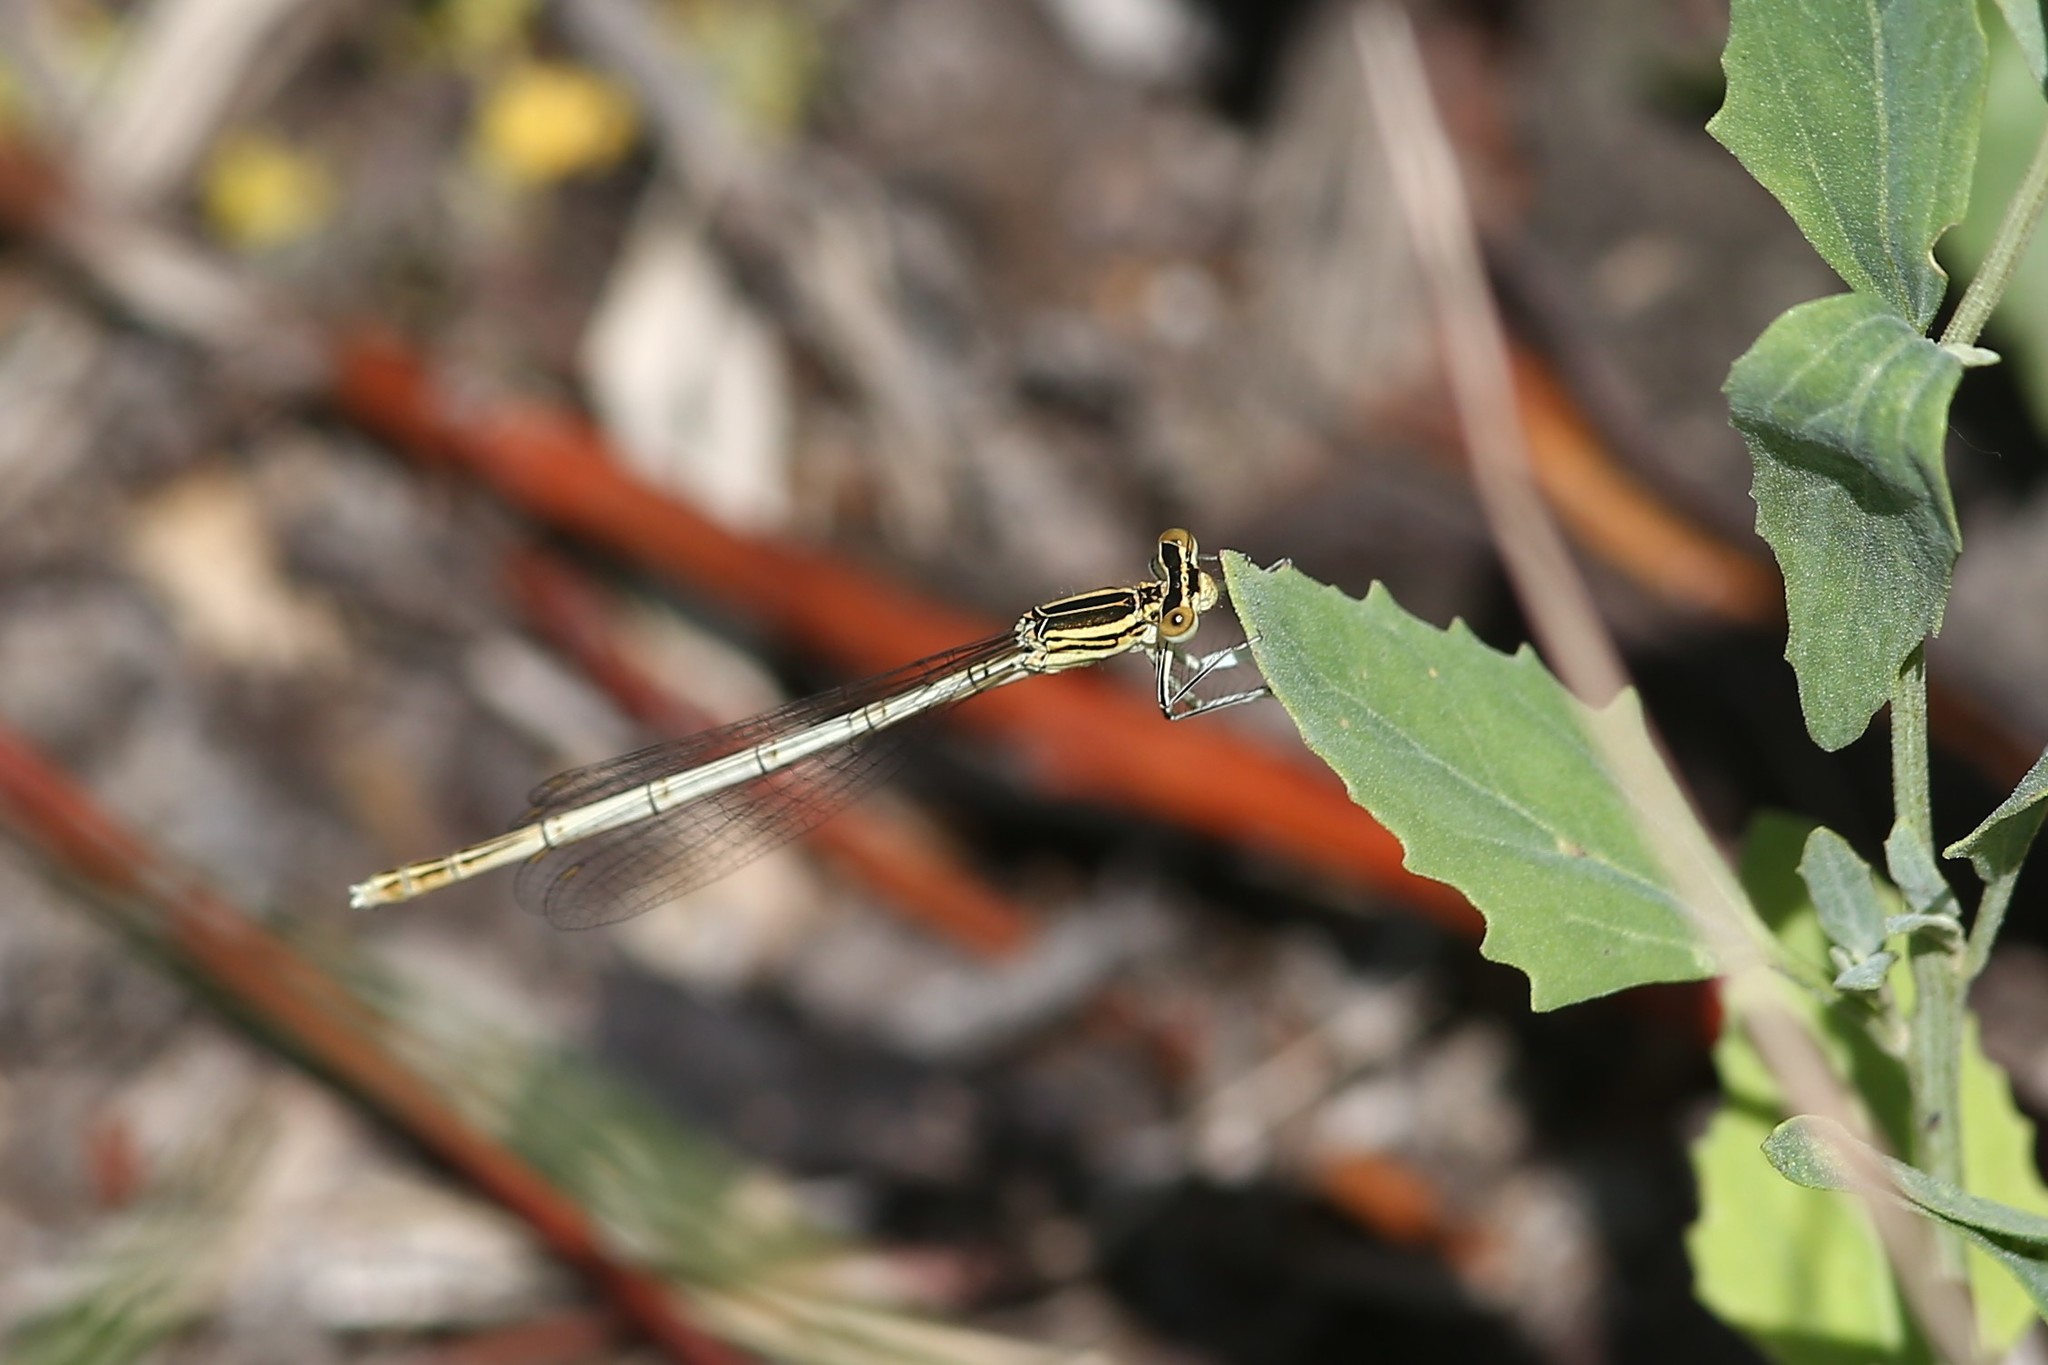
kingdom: Animalia
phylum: Arthropoda
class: Insecta
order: Odonata
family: Platycnemididae
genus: Platycnemis
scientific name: Platycnemis pennipes
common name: White-legged damselfly
